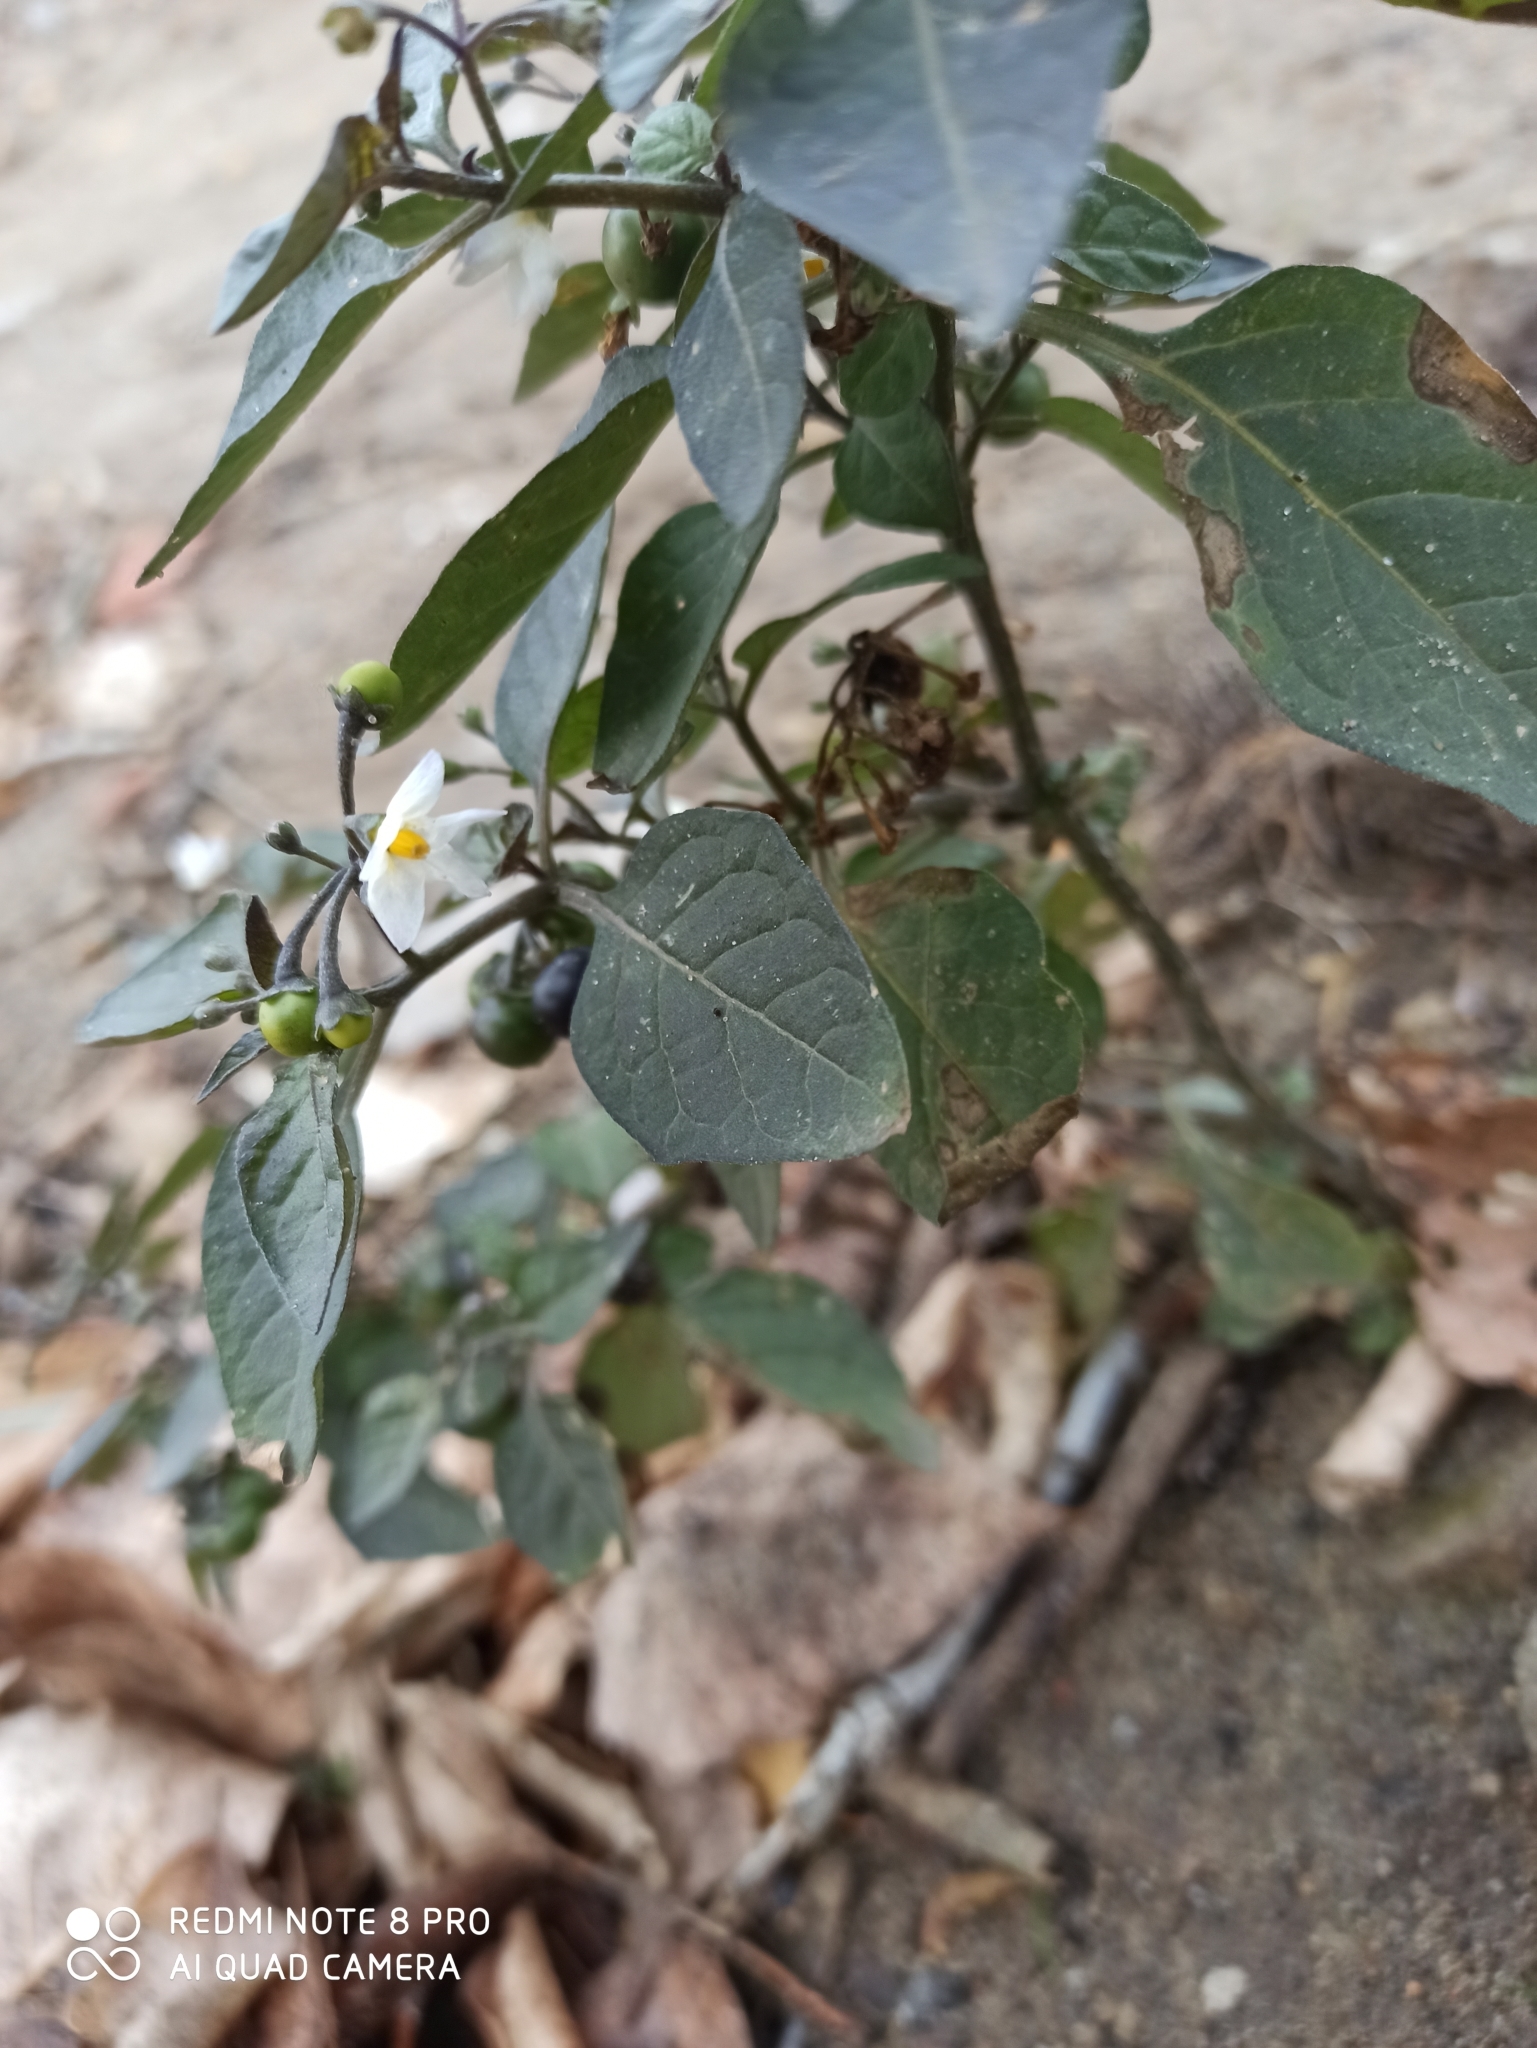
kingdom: Plantae
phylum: Tracheophyta
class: Magnoliopsida
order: Solanales
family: Solanaceae
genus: Solanum
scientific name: Solanum nigrum
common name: Black nightshade
